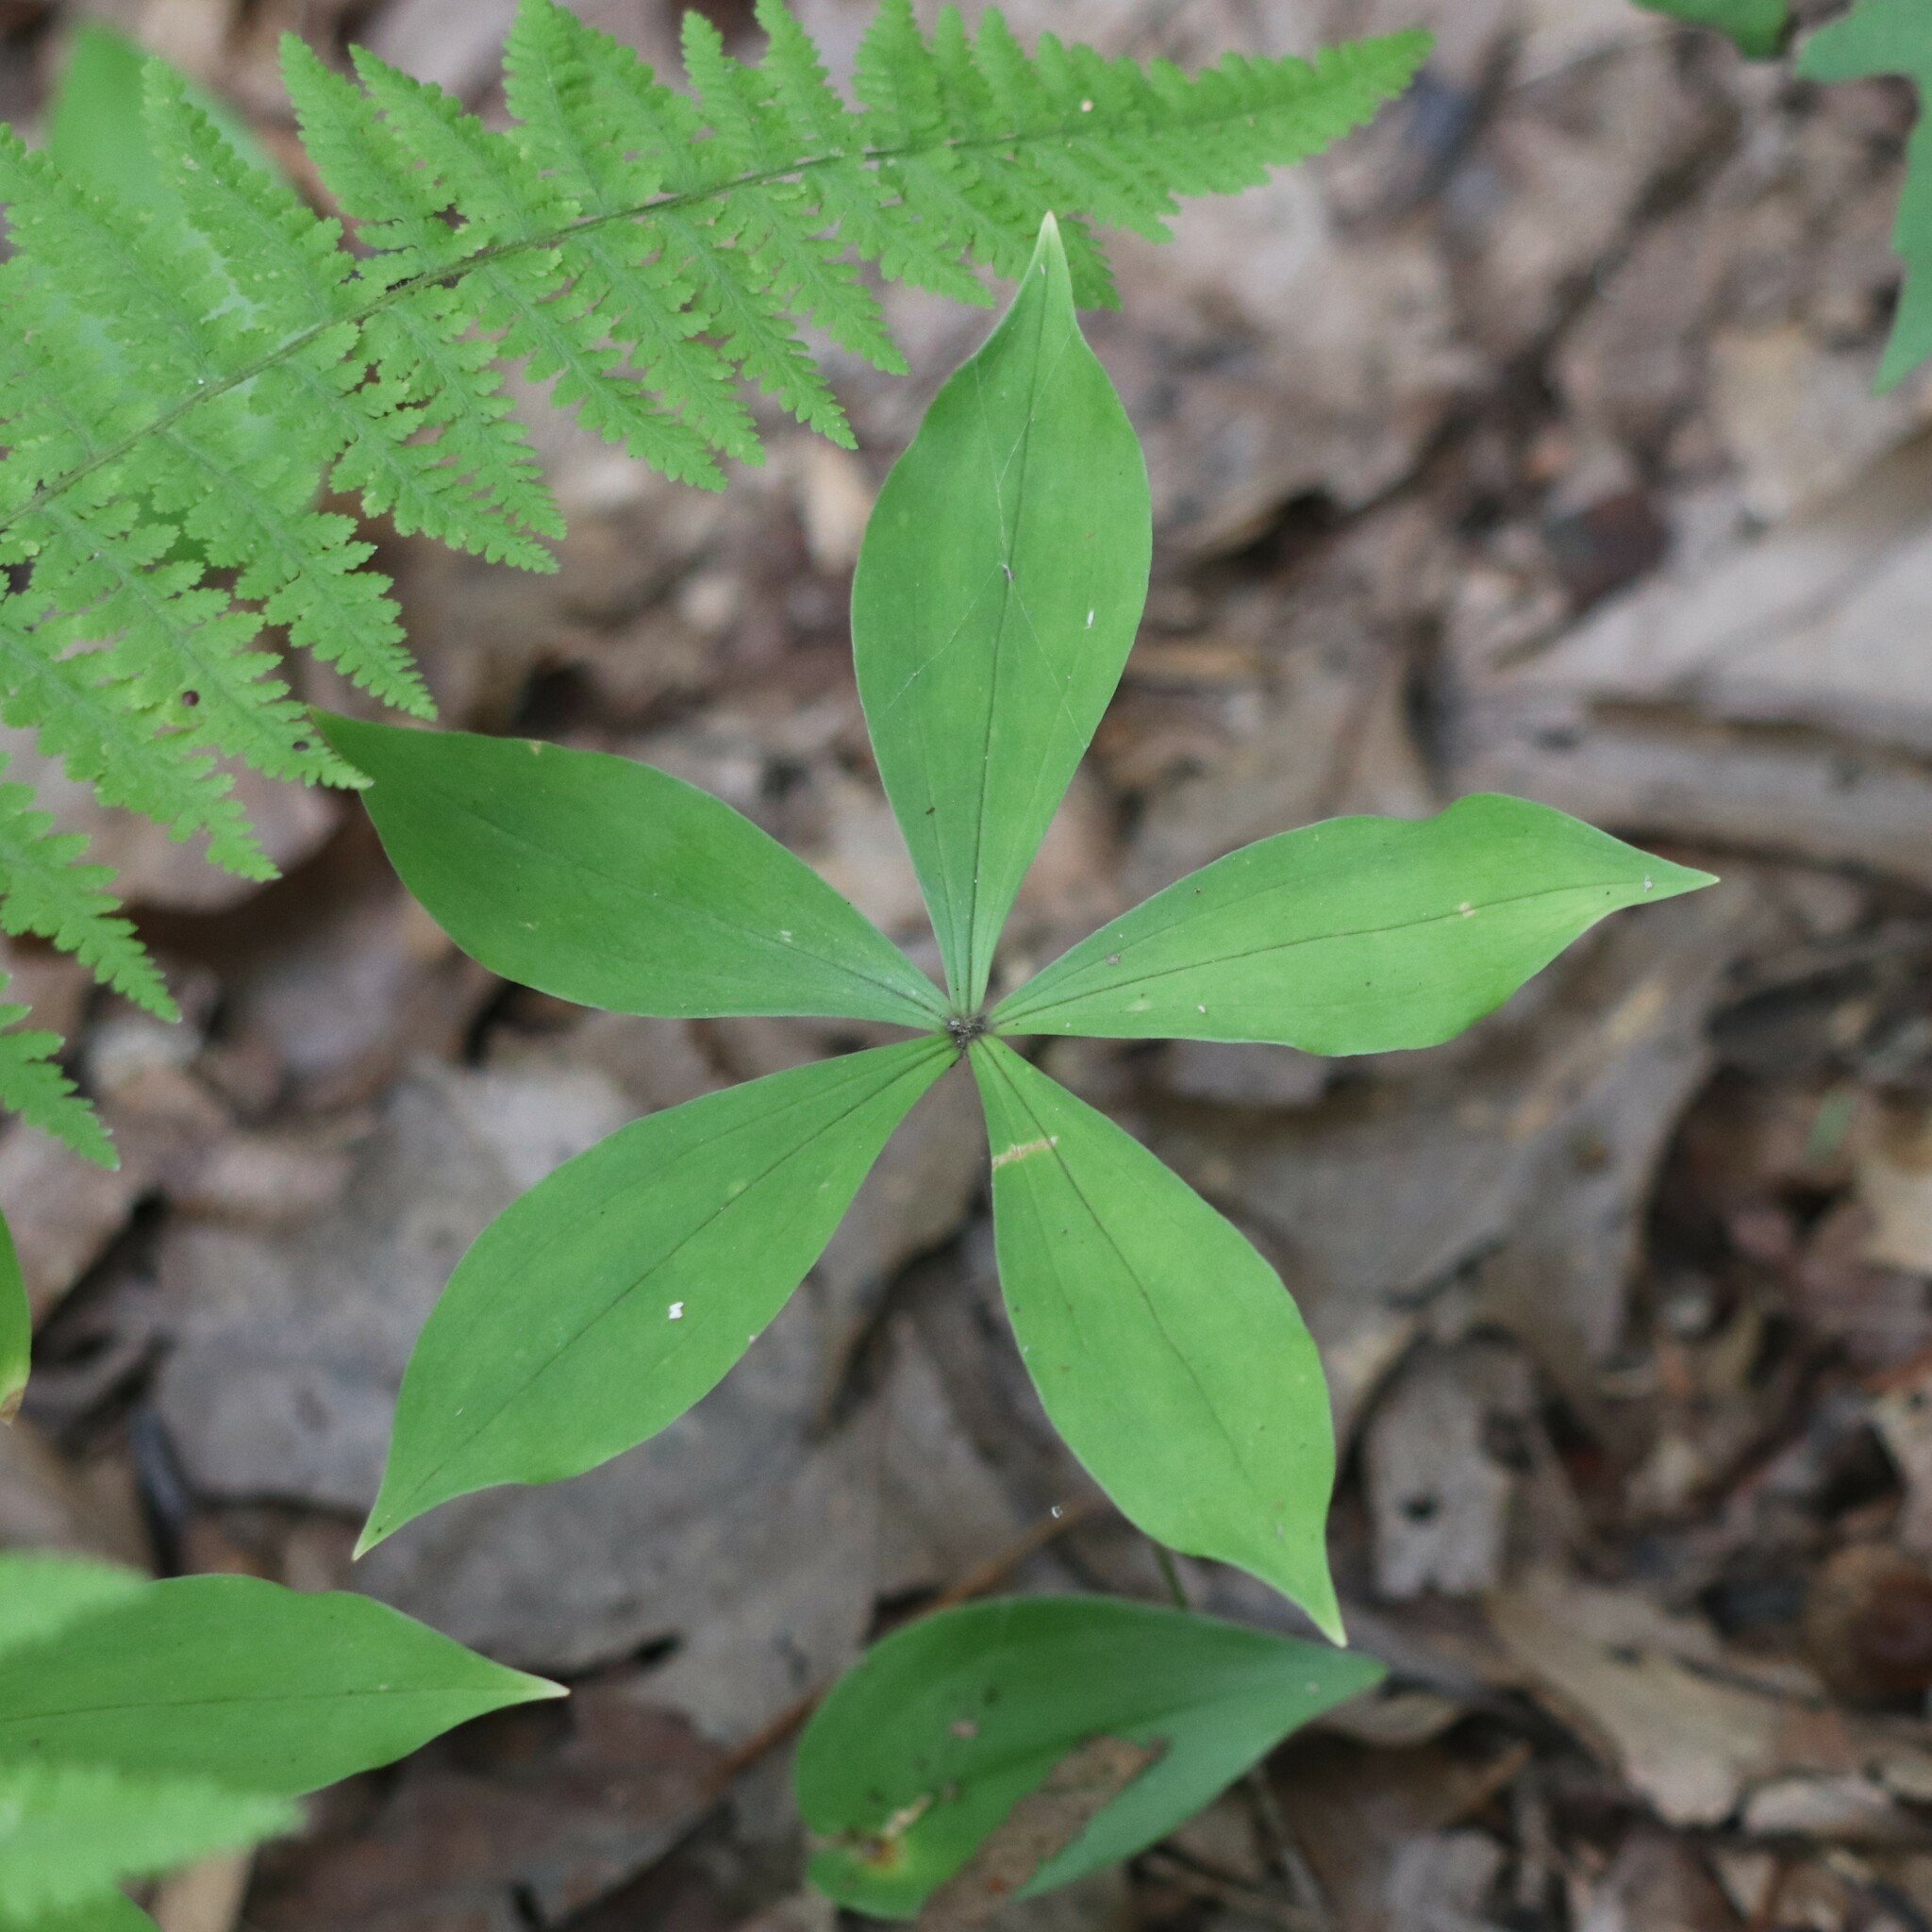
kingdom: Plantae
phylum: Tracheophyta
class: Liliopsida
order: Liliales
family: Liliaceae
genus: Medeola
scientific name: Medeola virginiana
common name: Indian cucumber-root
